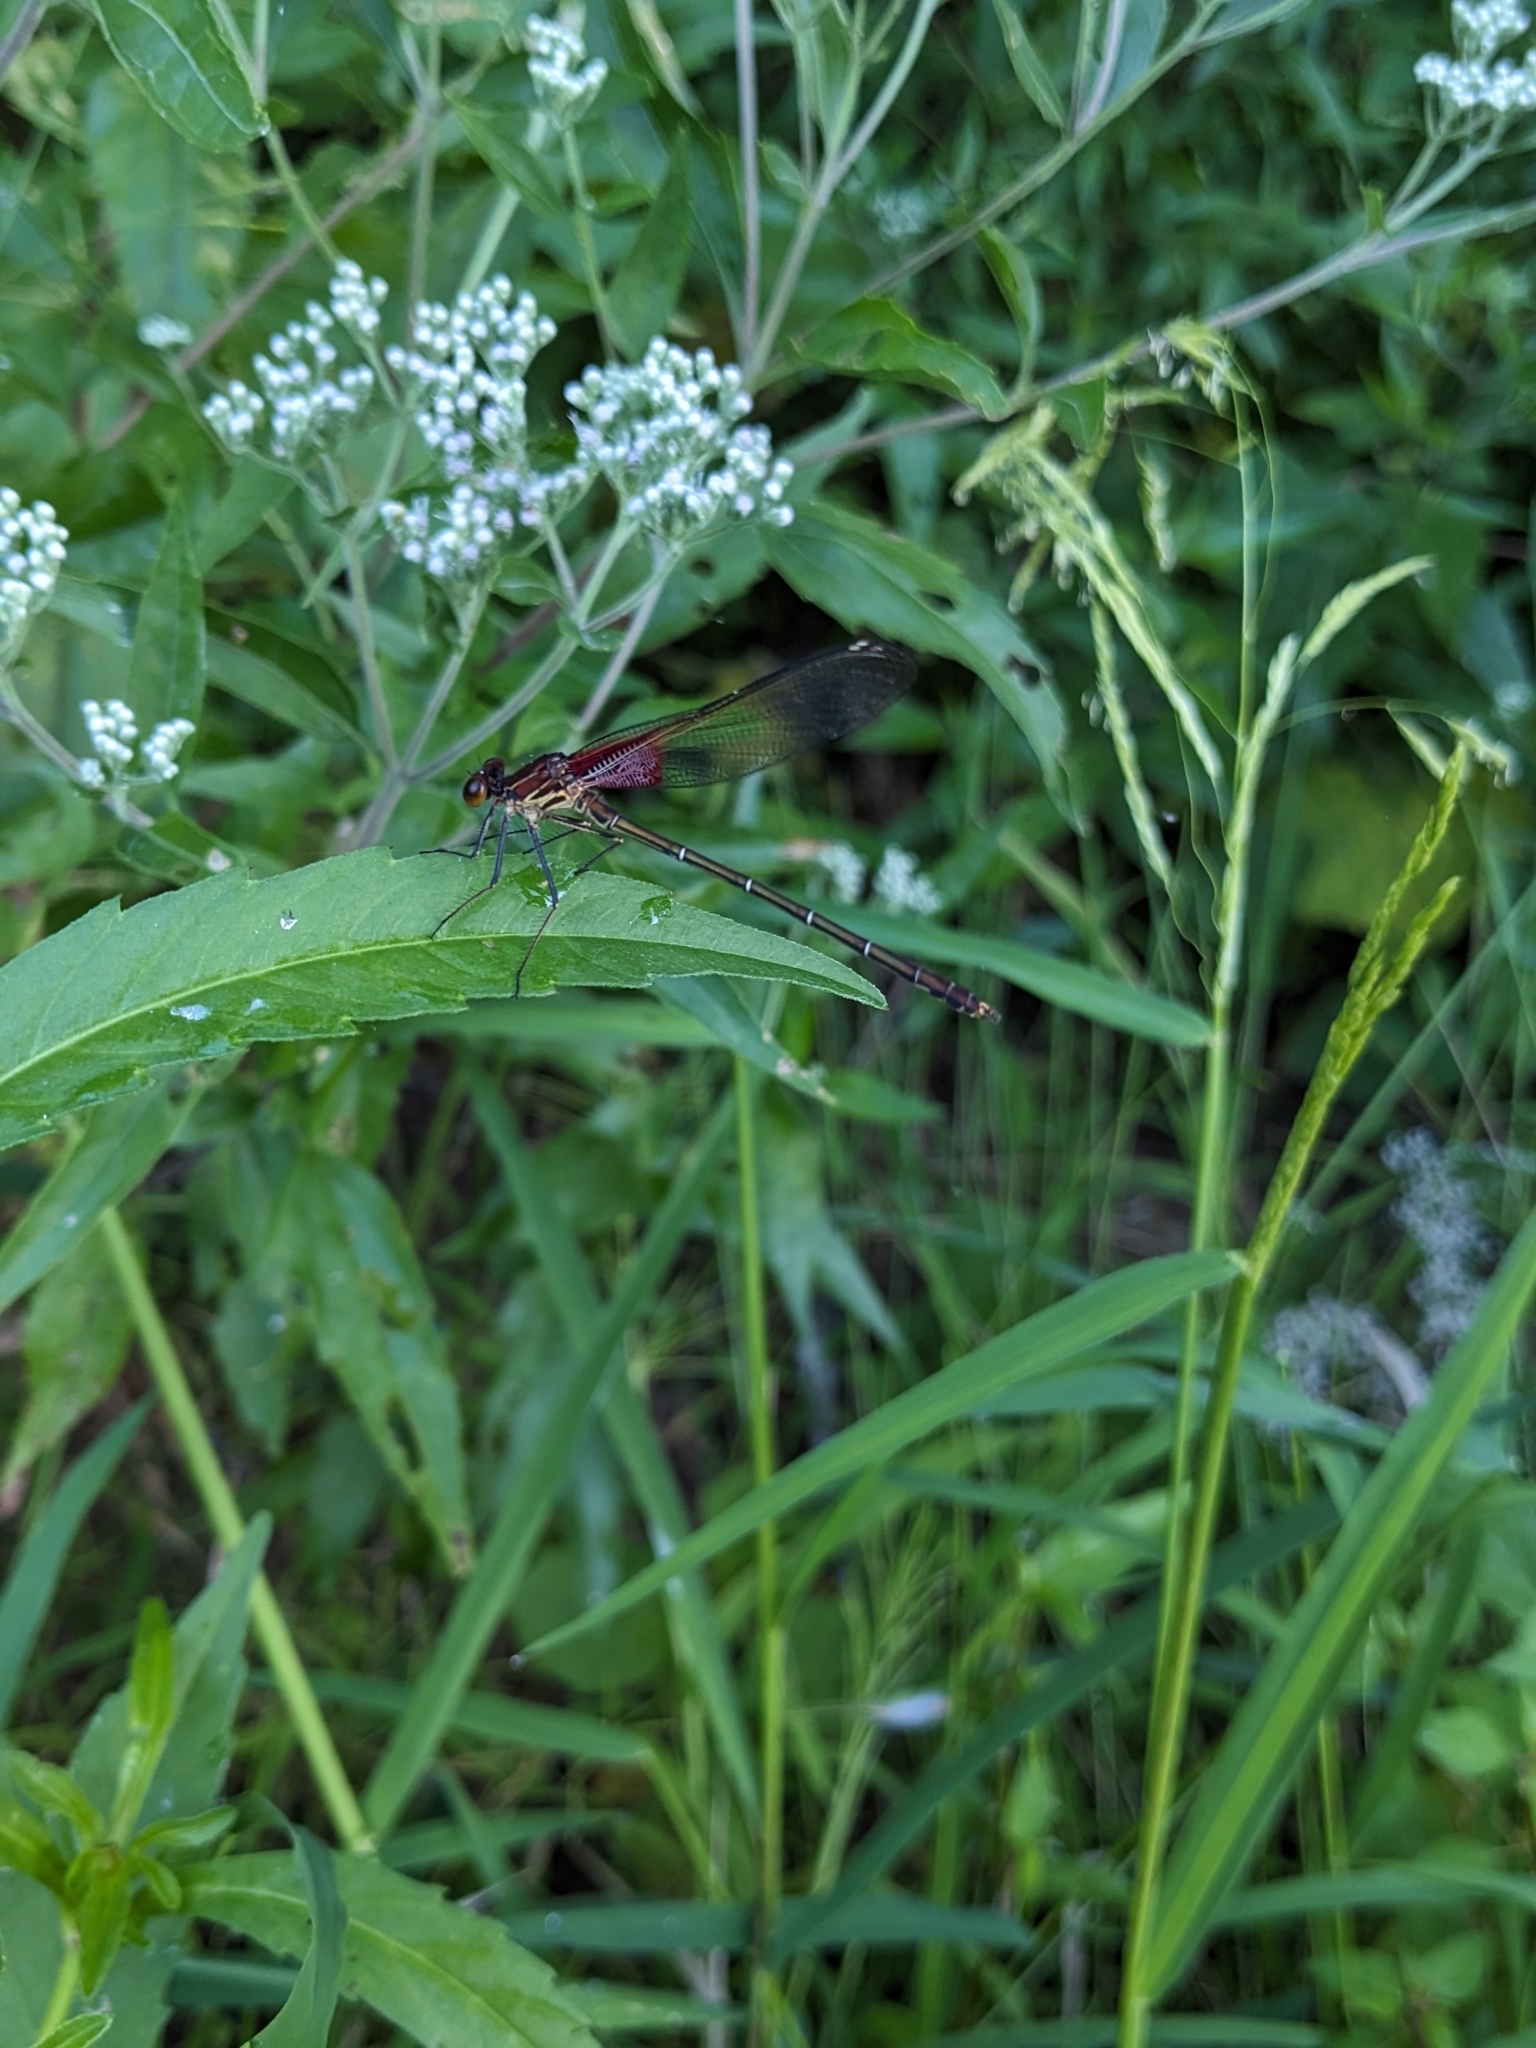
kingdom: Animalia
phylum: Arthropoda
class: Insecta
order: Odonata
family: Calopterygidae
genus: Hetaerina
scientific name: Hetaerina americana
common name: American rubyspot
